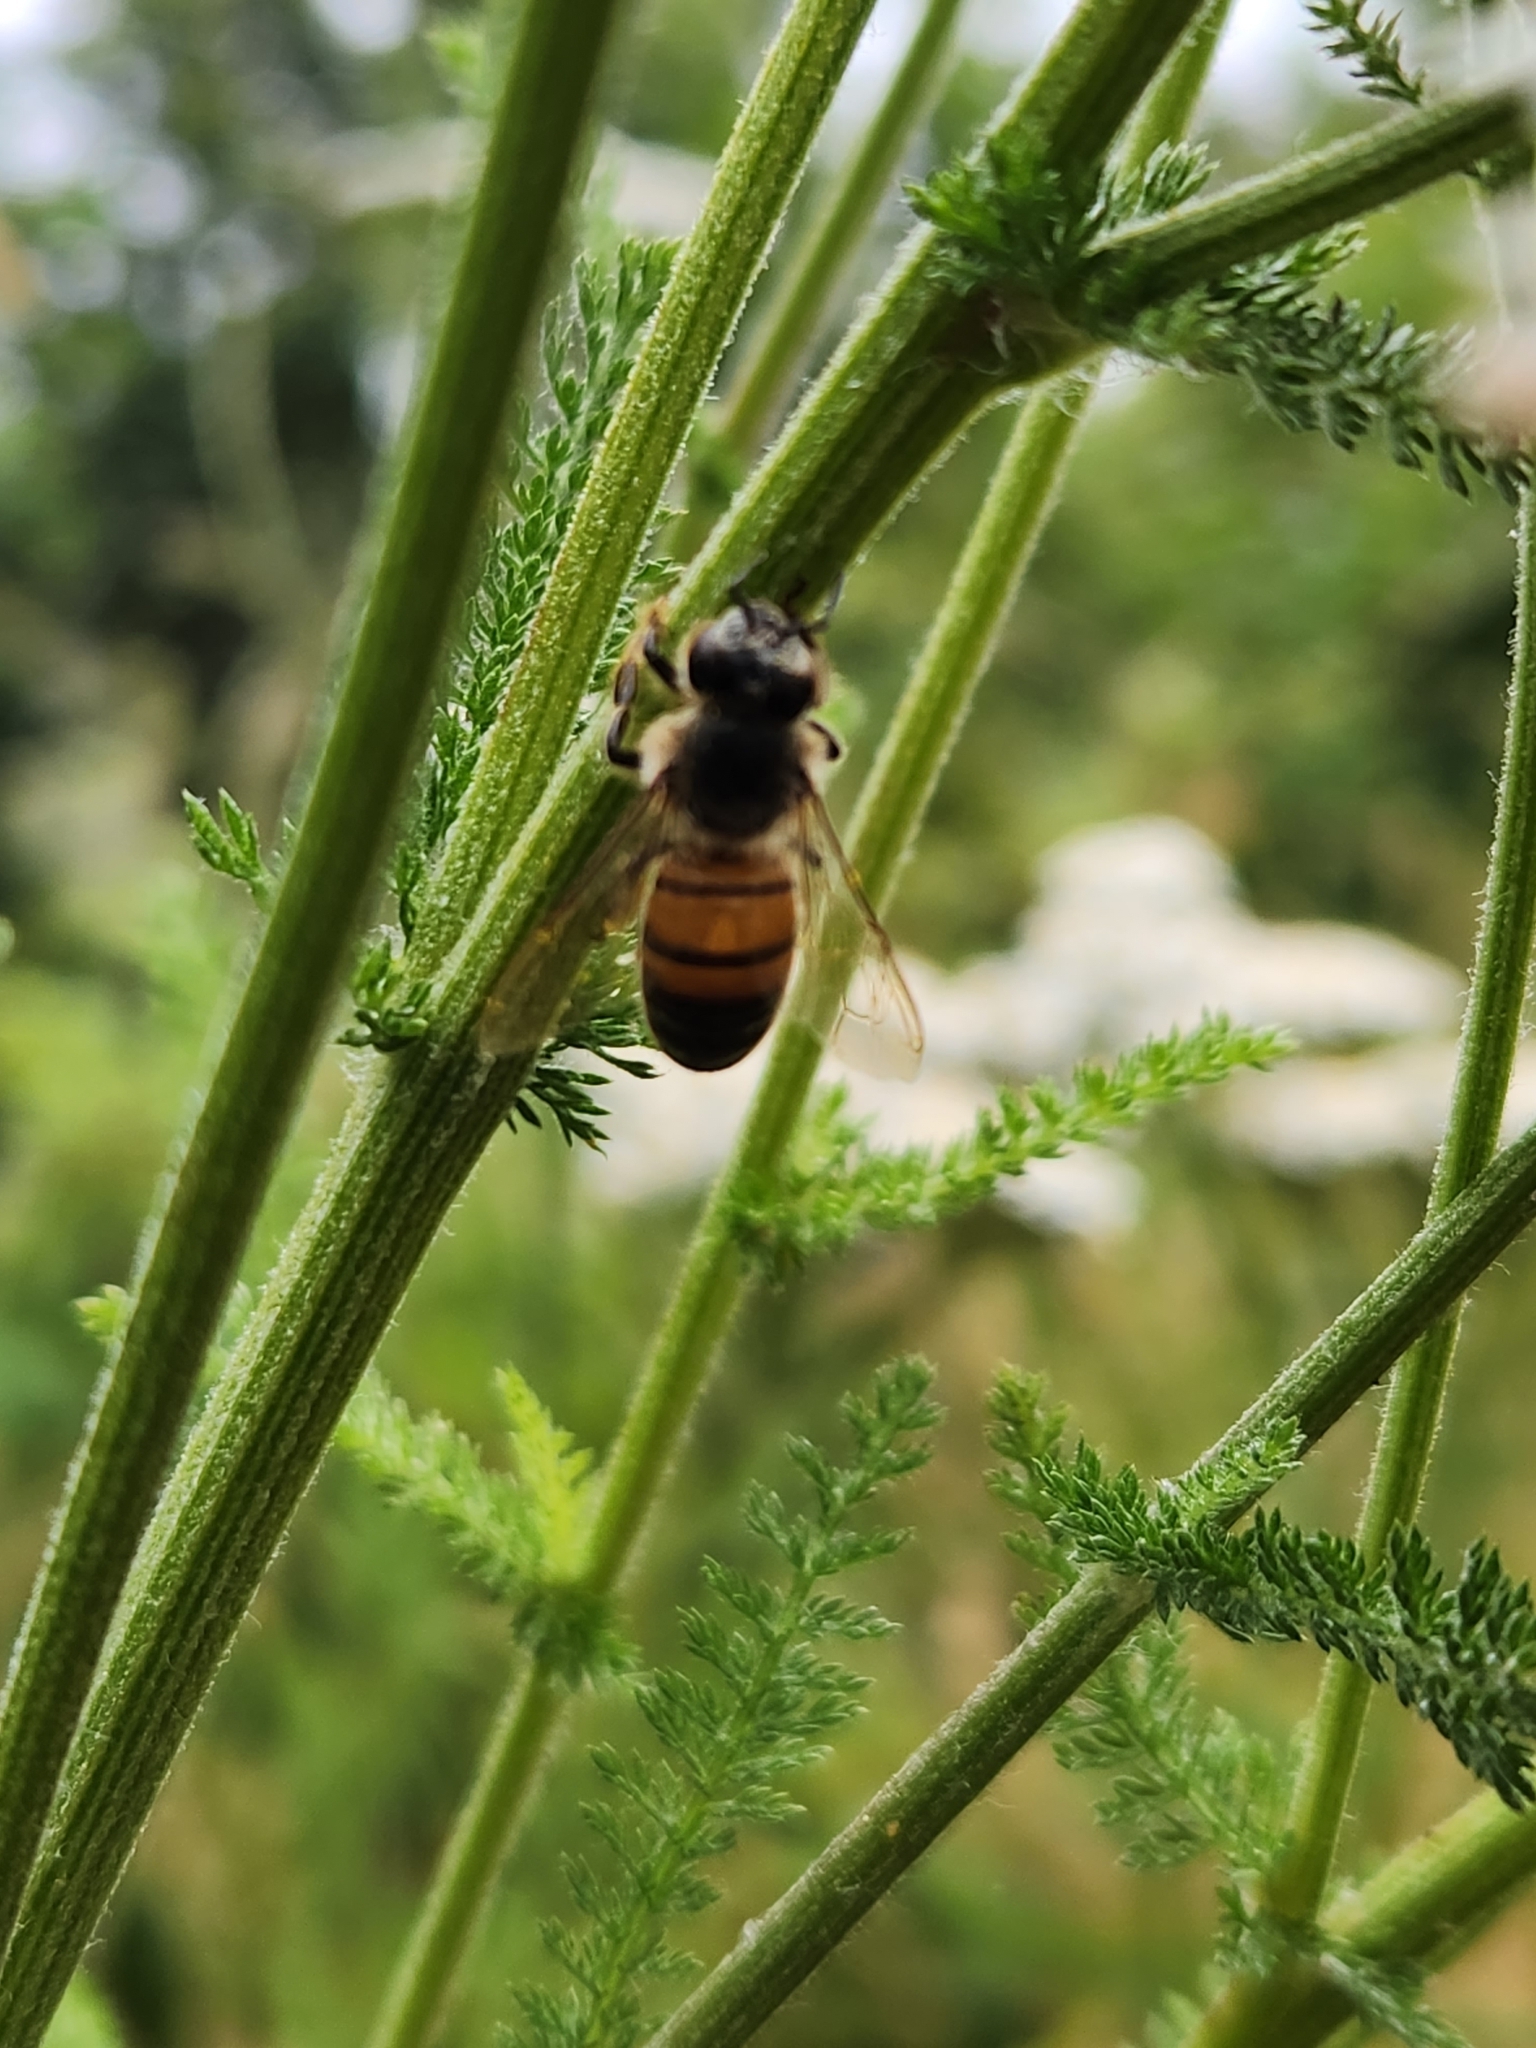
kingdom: Animalia
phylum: Arthropoda
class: Insecta
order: Hymenoptera
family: Apidae
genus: Apis
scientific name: Apis mellifera
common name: Honey bee
